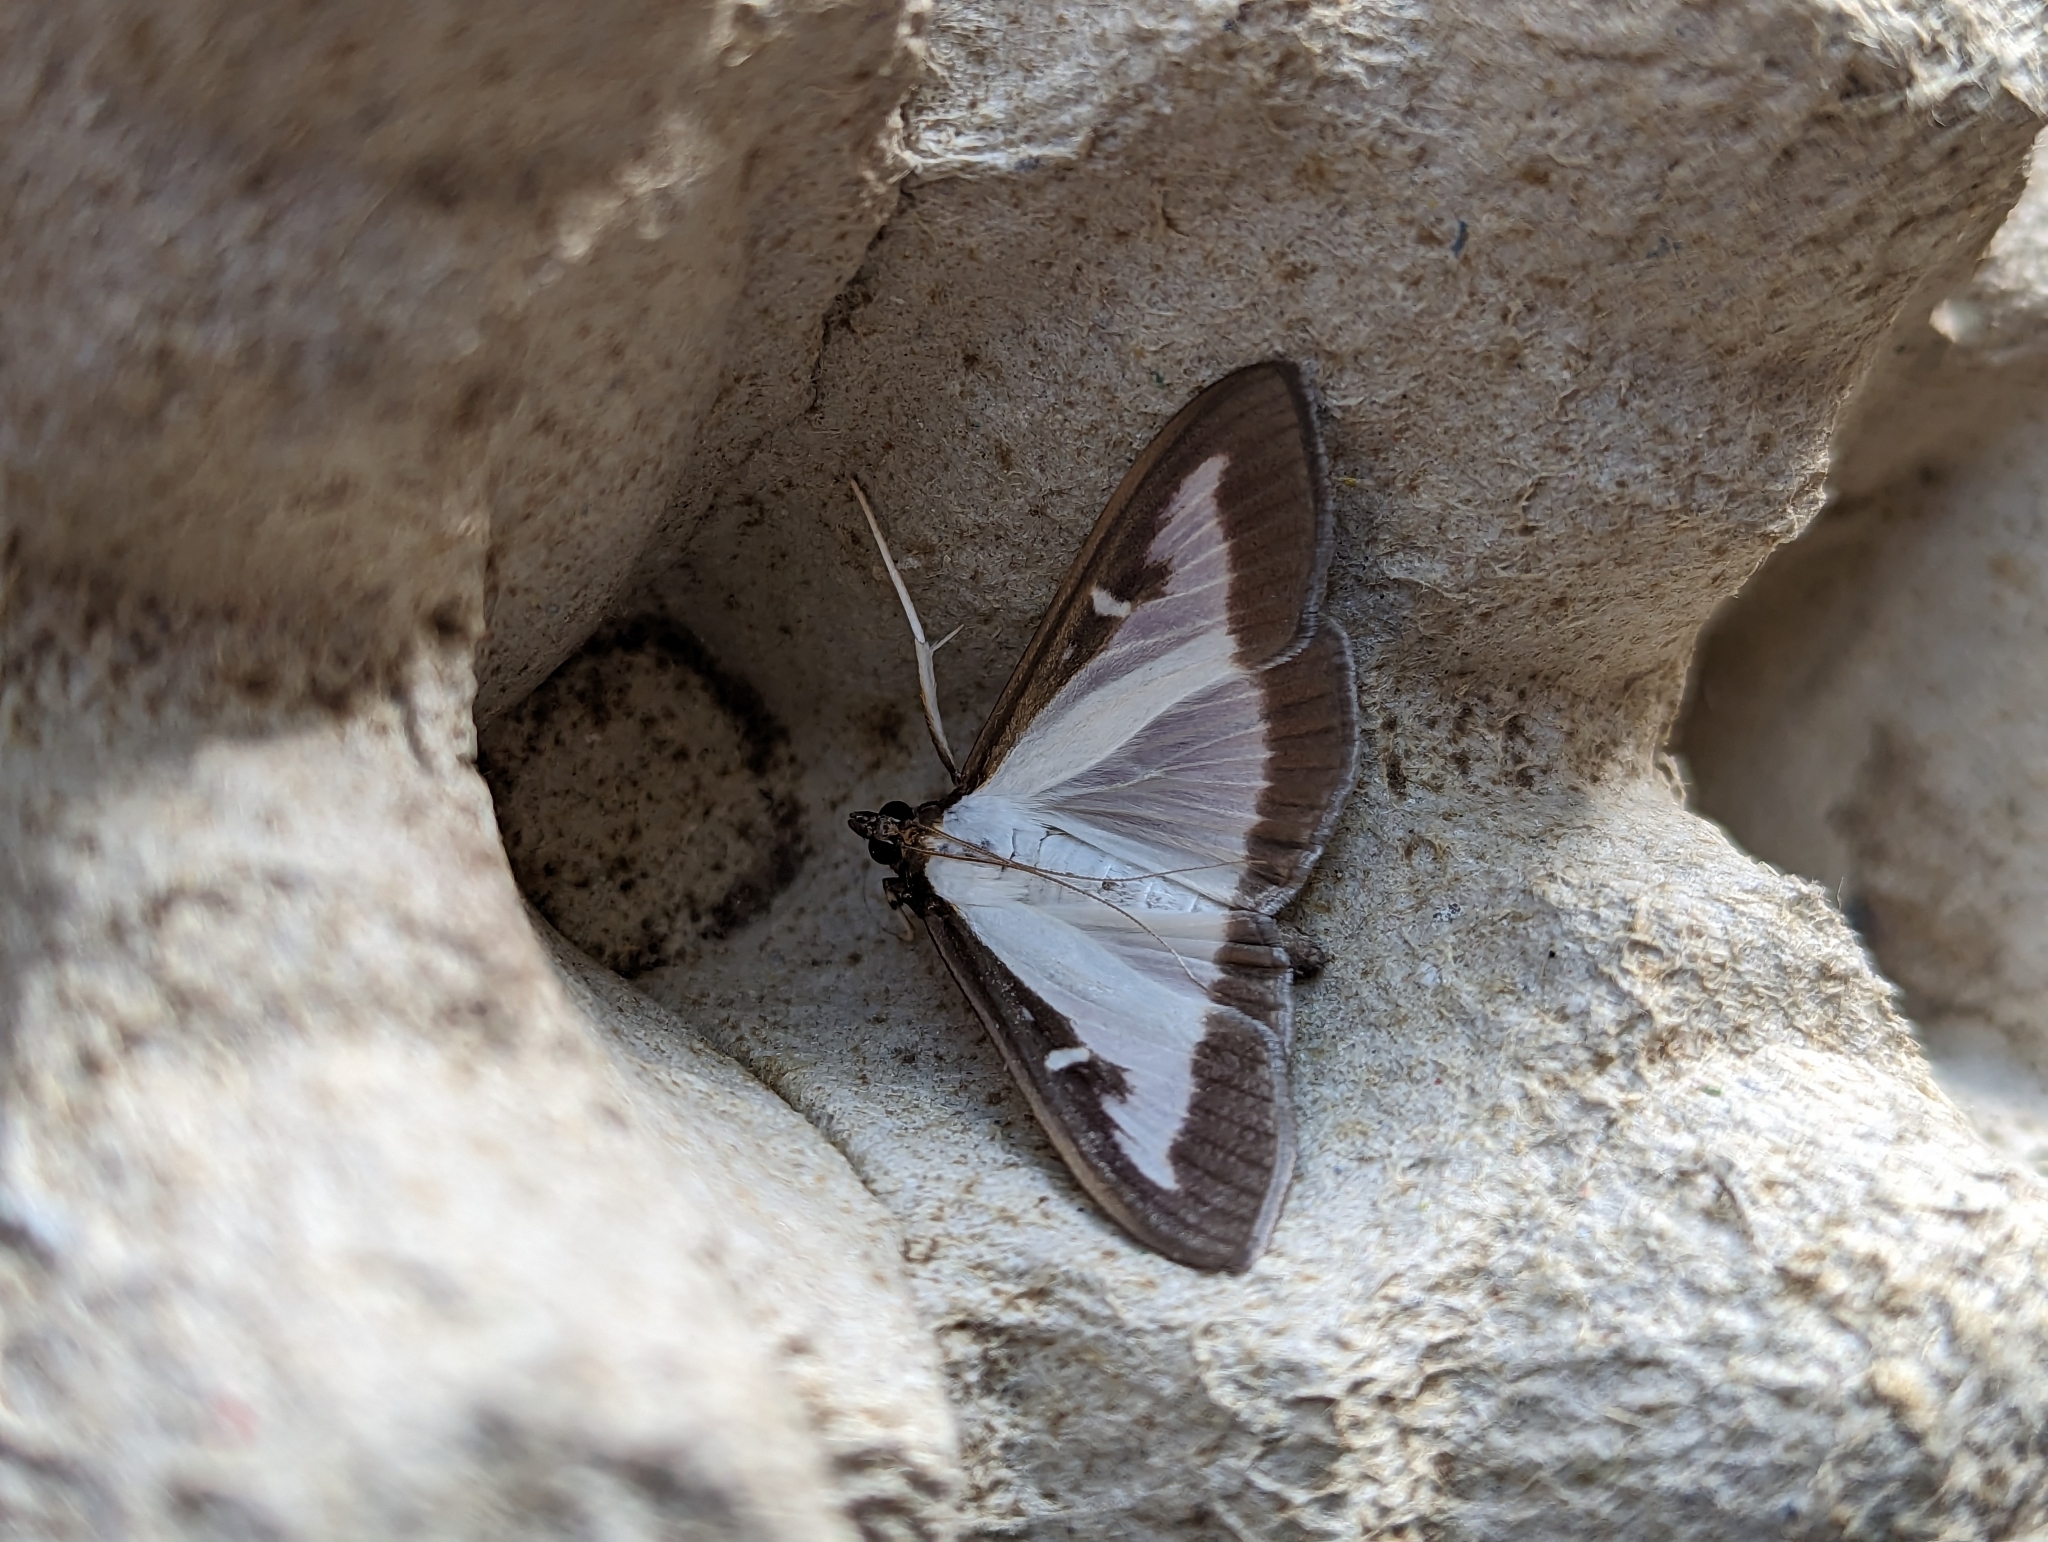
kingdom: Animalia
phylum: Arthropoda
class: Insecta
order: Lepidoptera
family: Crambidae
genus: Cydalima
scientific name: Cydalima perspectalis
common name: Box tree moth
